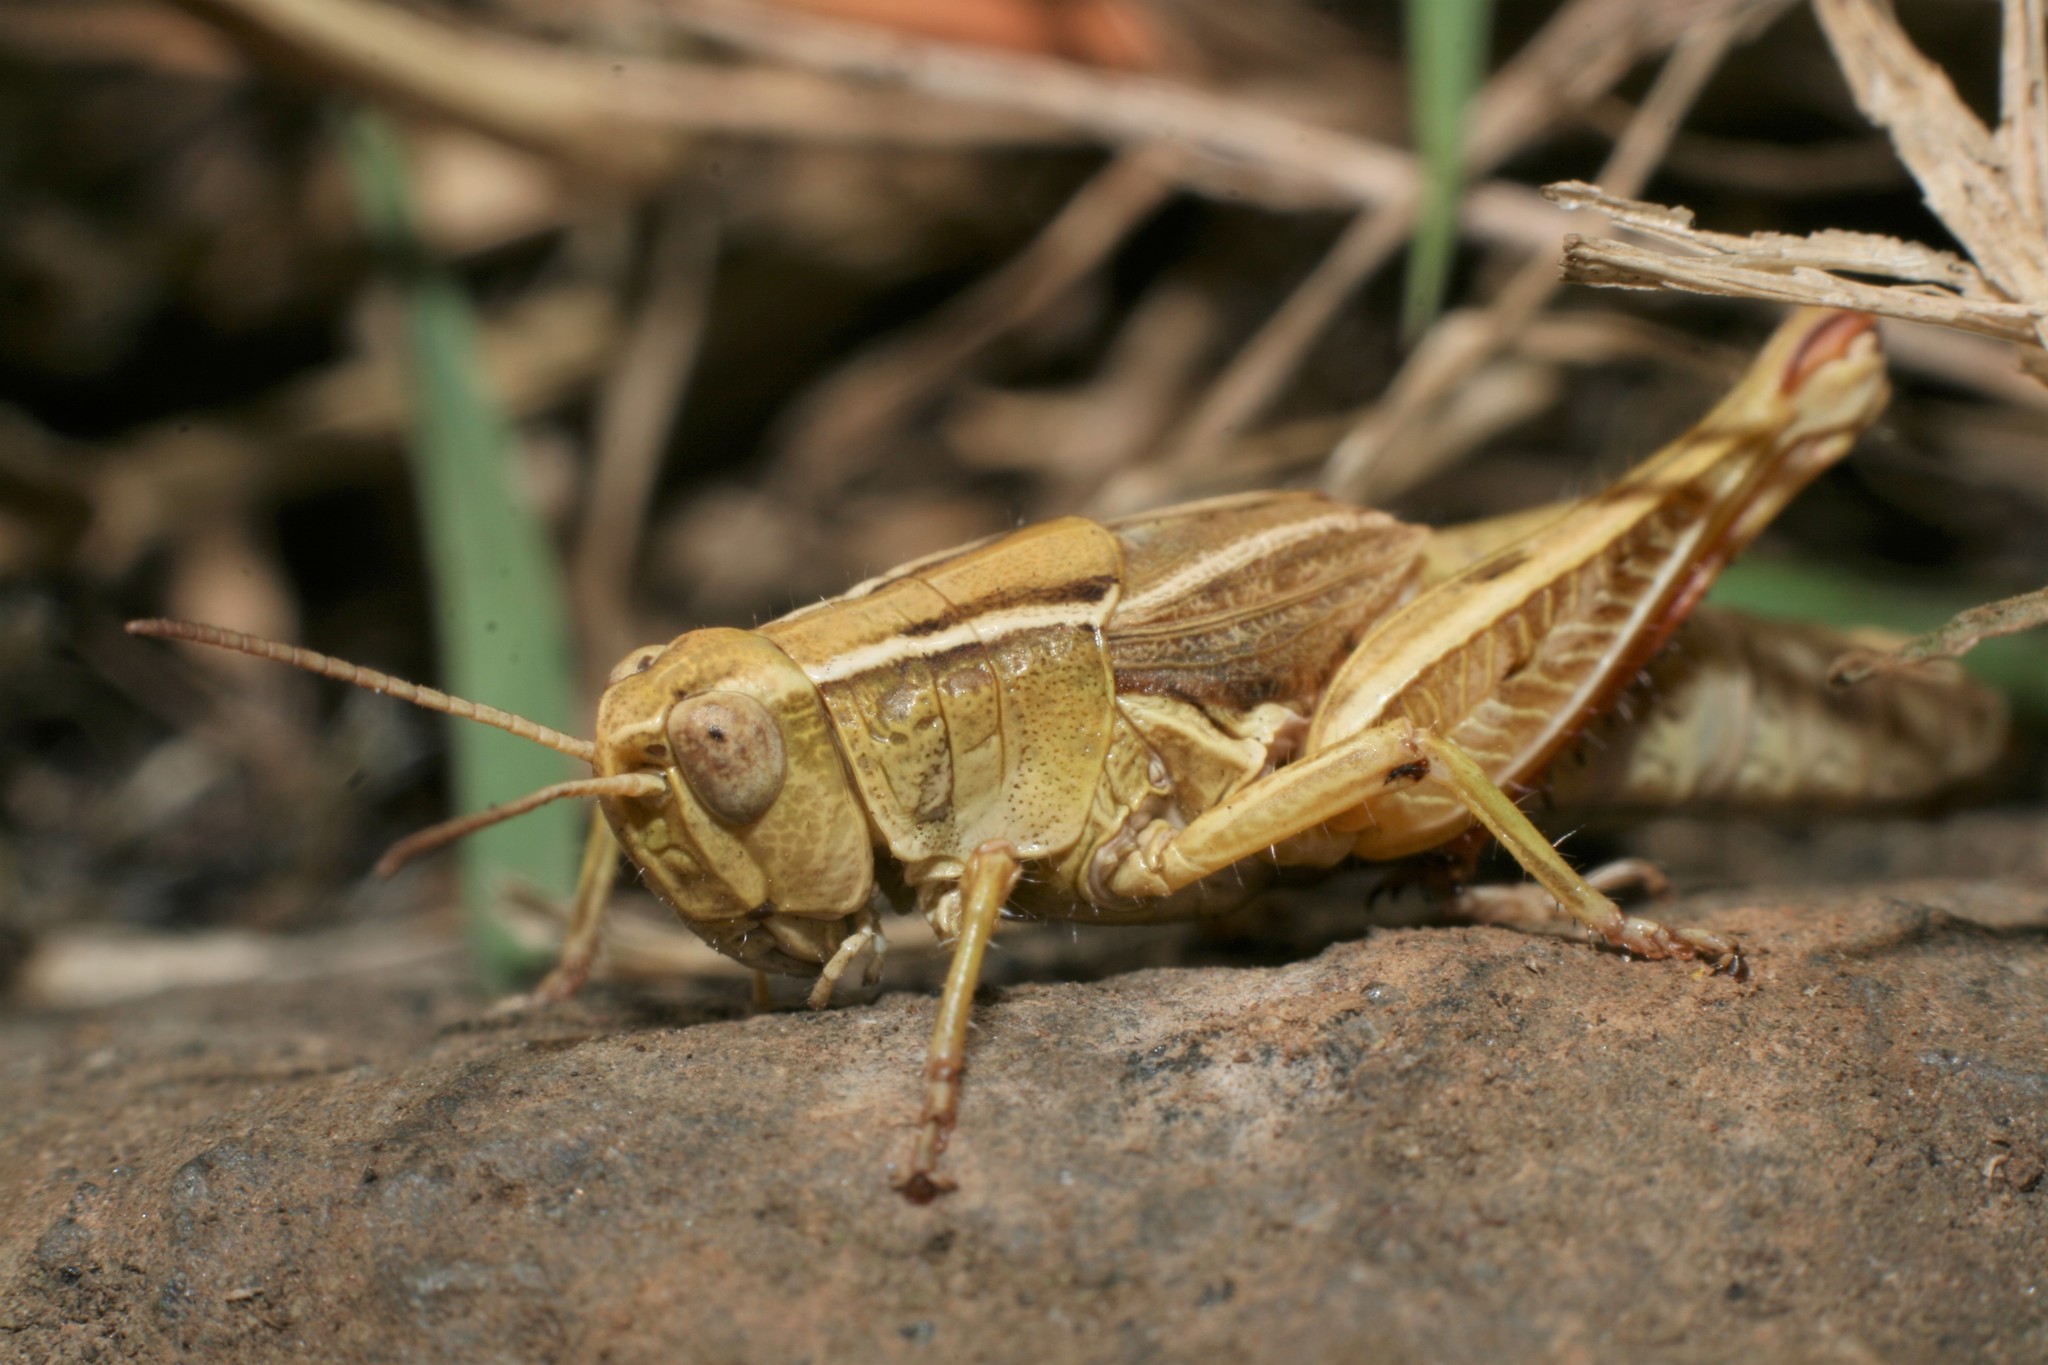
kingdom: Animalia
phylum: Arthropoda
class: Insecta
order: Orthoptera
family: Acrididae
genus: Phaulacridium
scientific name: Phaulacridium marginale
